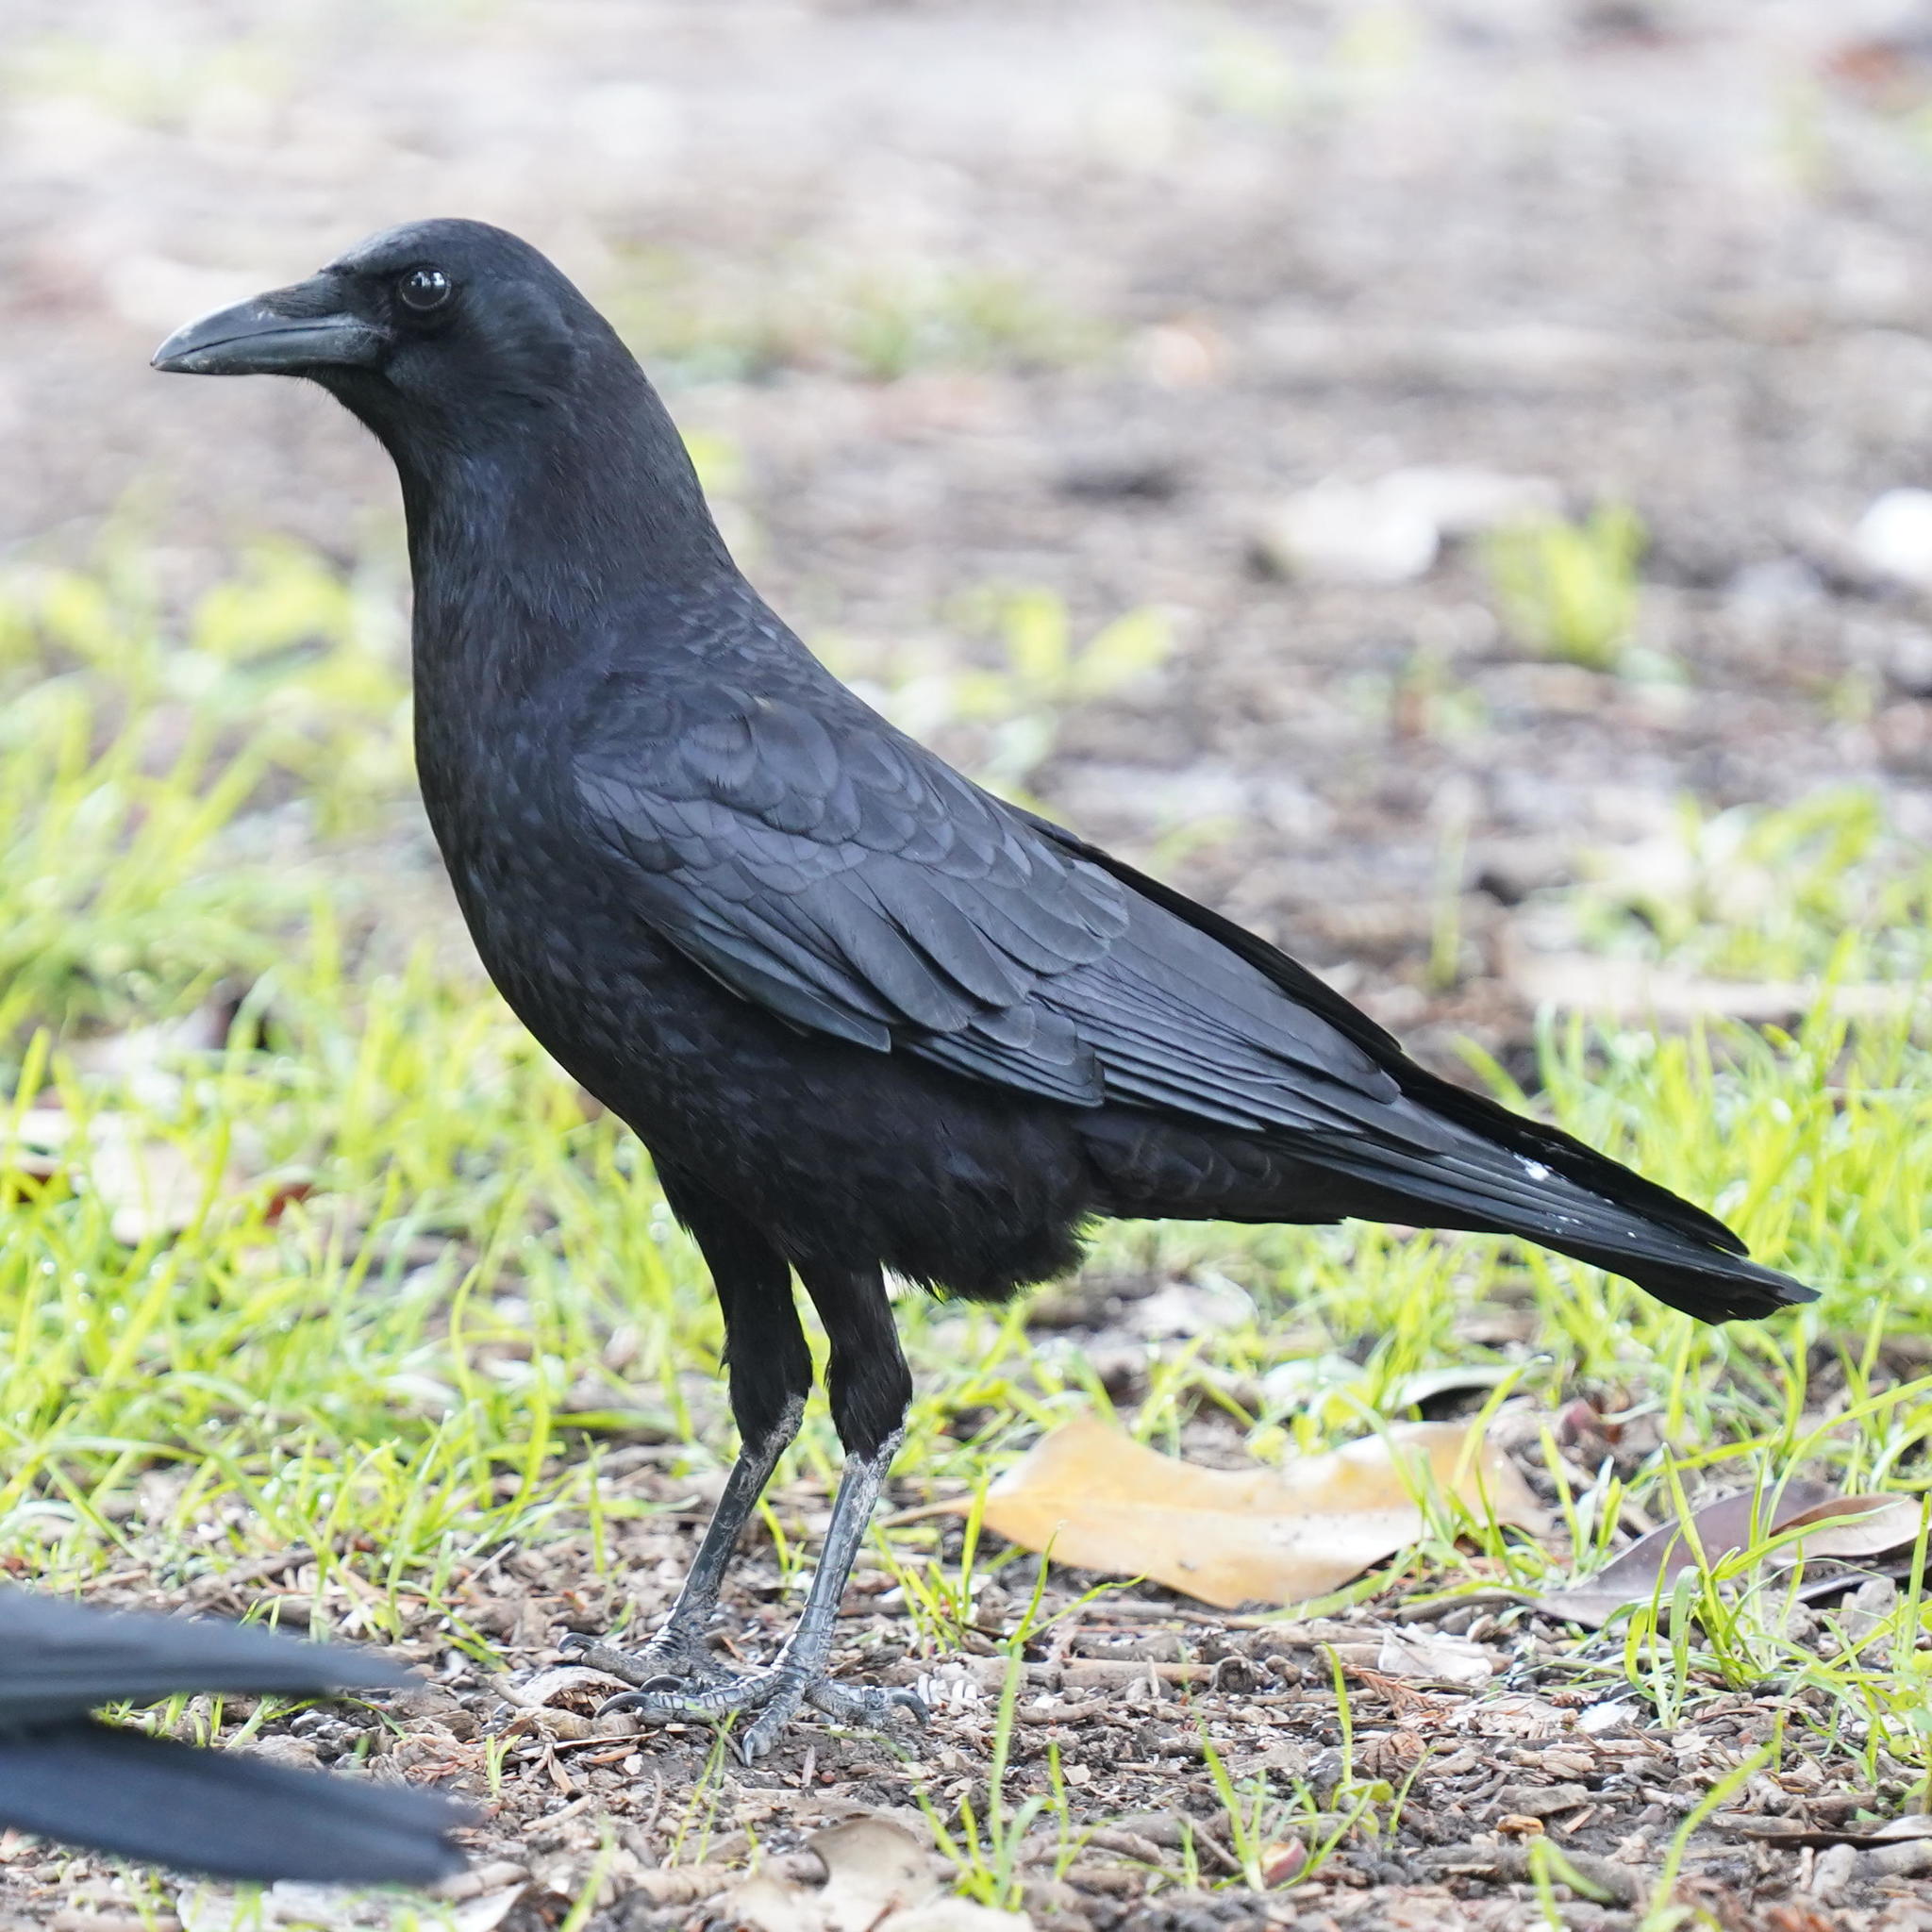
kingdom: Animalia
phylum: Chordata
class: Aves
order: Passeriformes
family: Corvidae
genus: Corvus
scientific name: Corvus brachyrhynchos
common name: American crow
